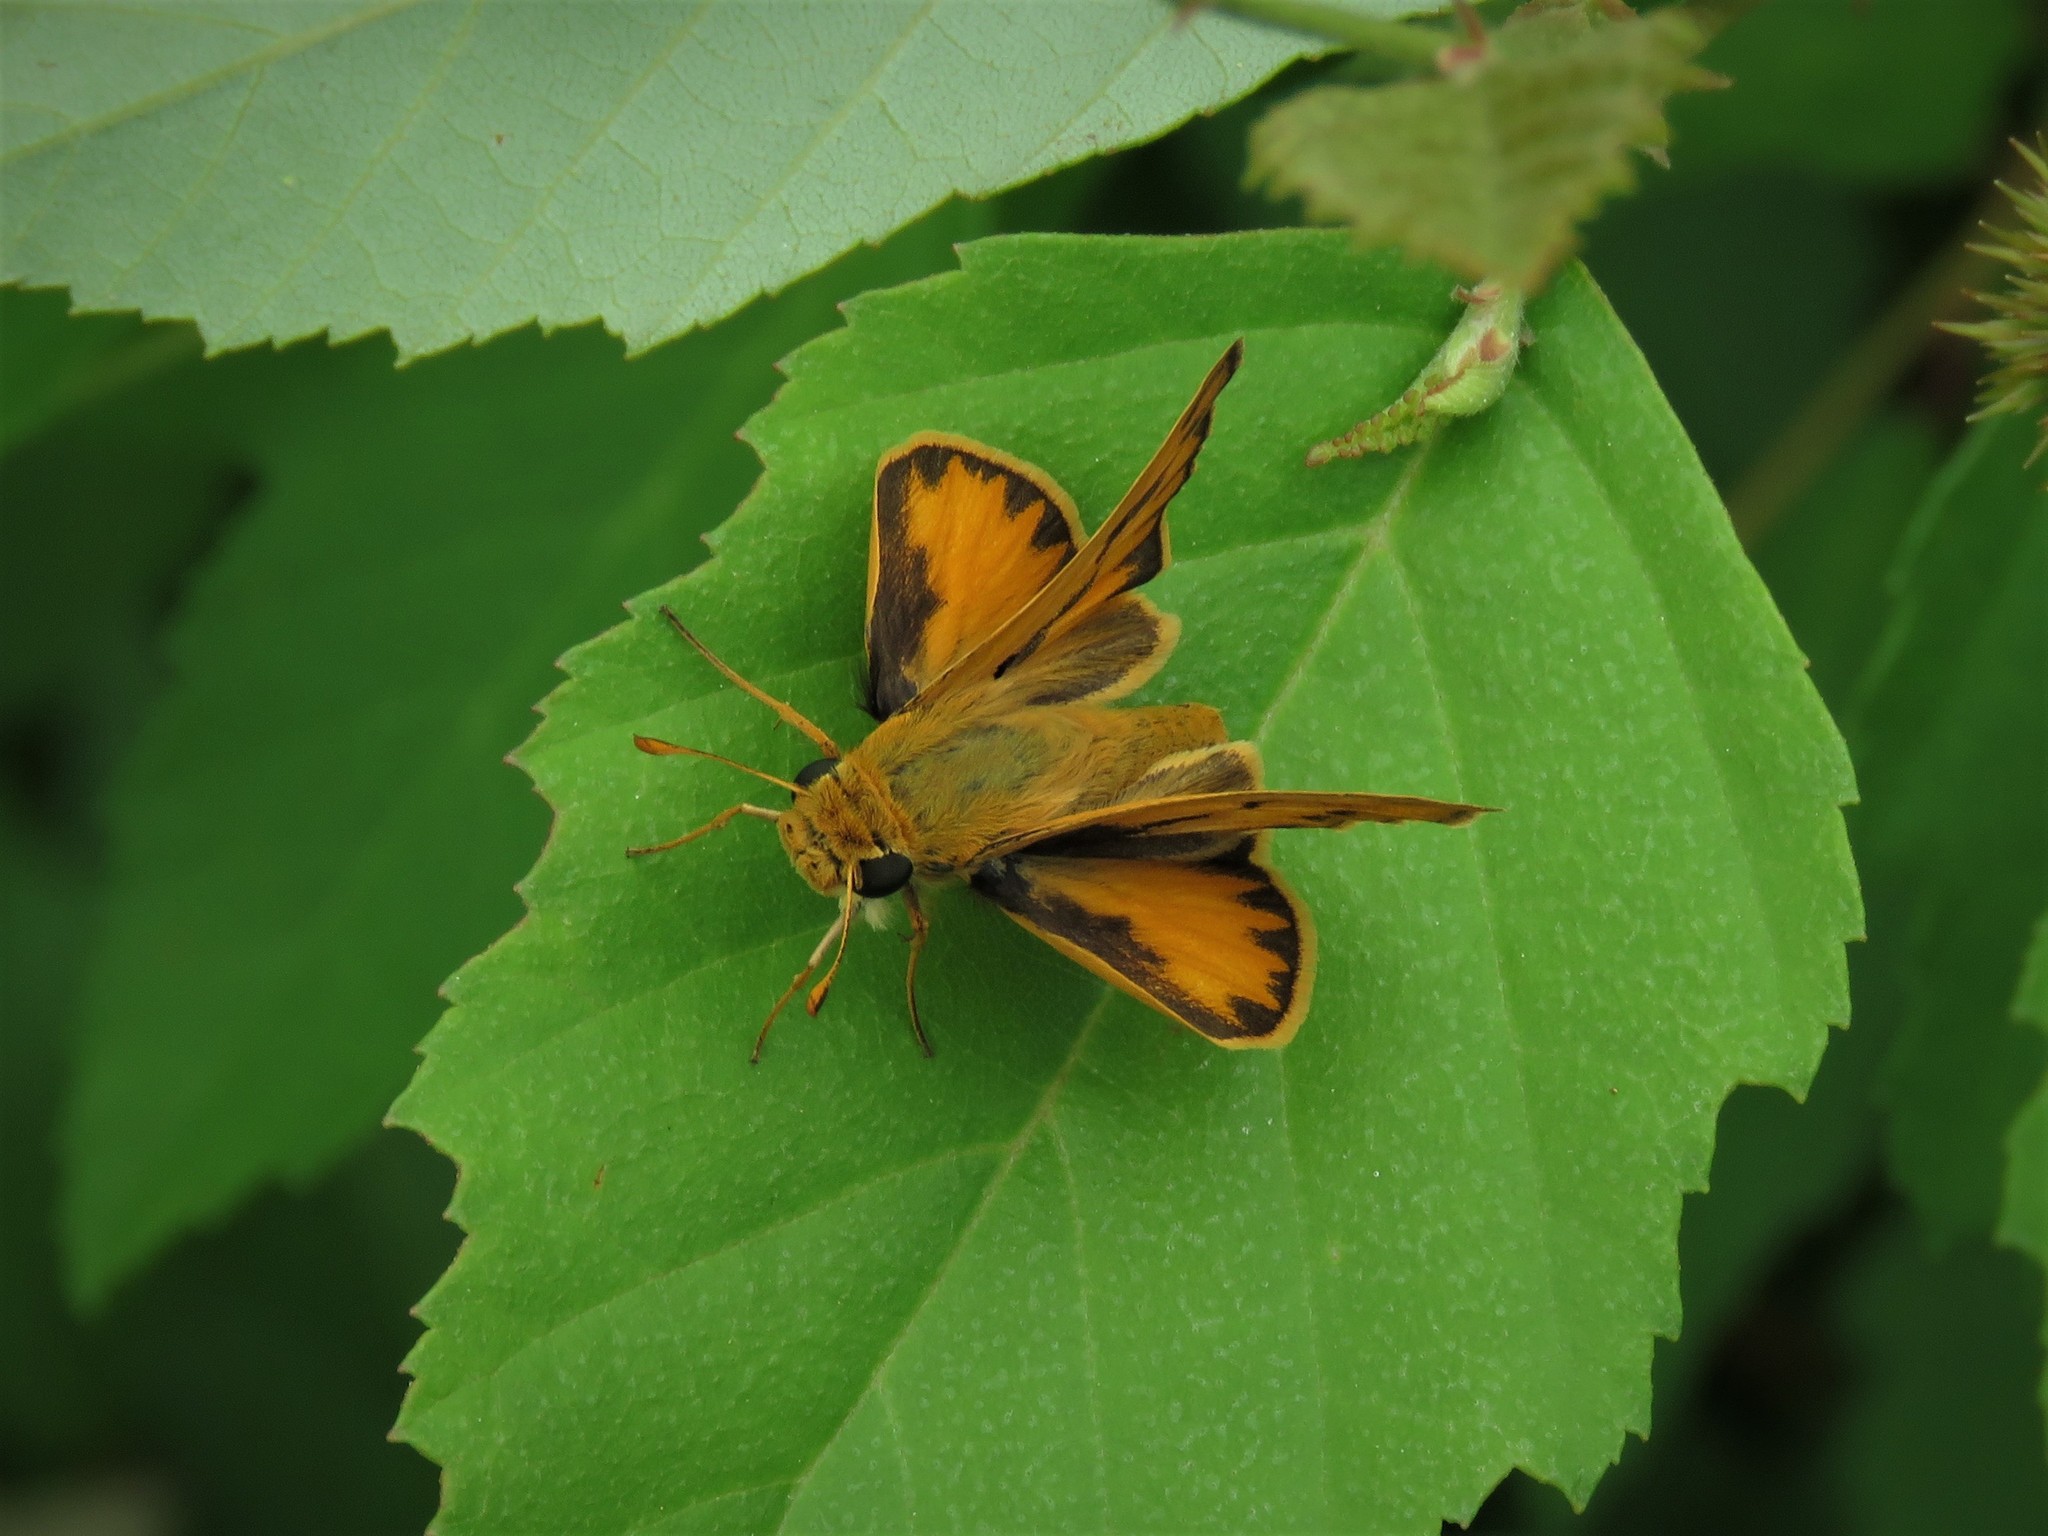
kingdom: Animalia
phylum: Arthropoda
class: Insecta
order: Lepidoptera
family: Hesperiidae
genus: Hylephila
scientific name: Hylephila phyleus
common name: Fiery skipper
